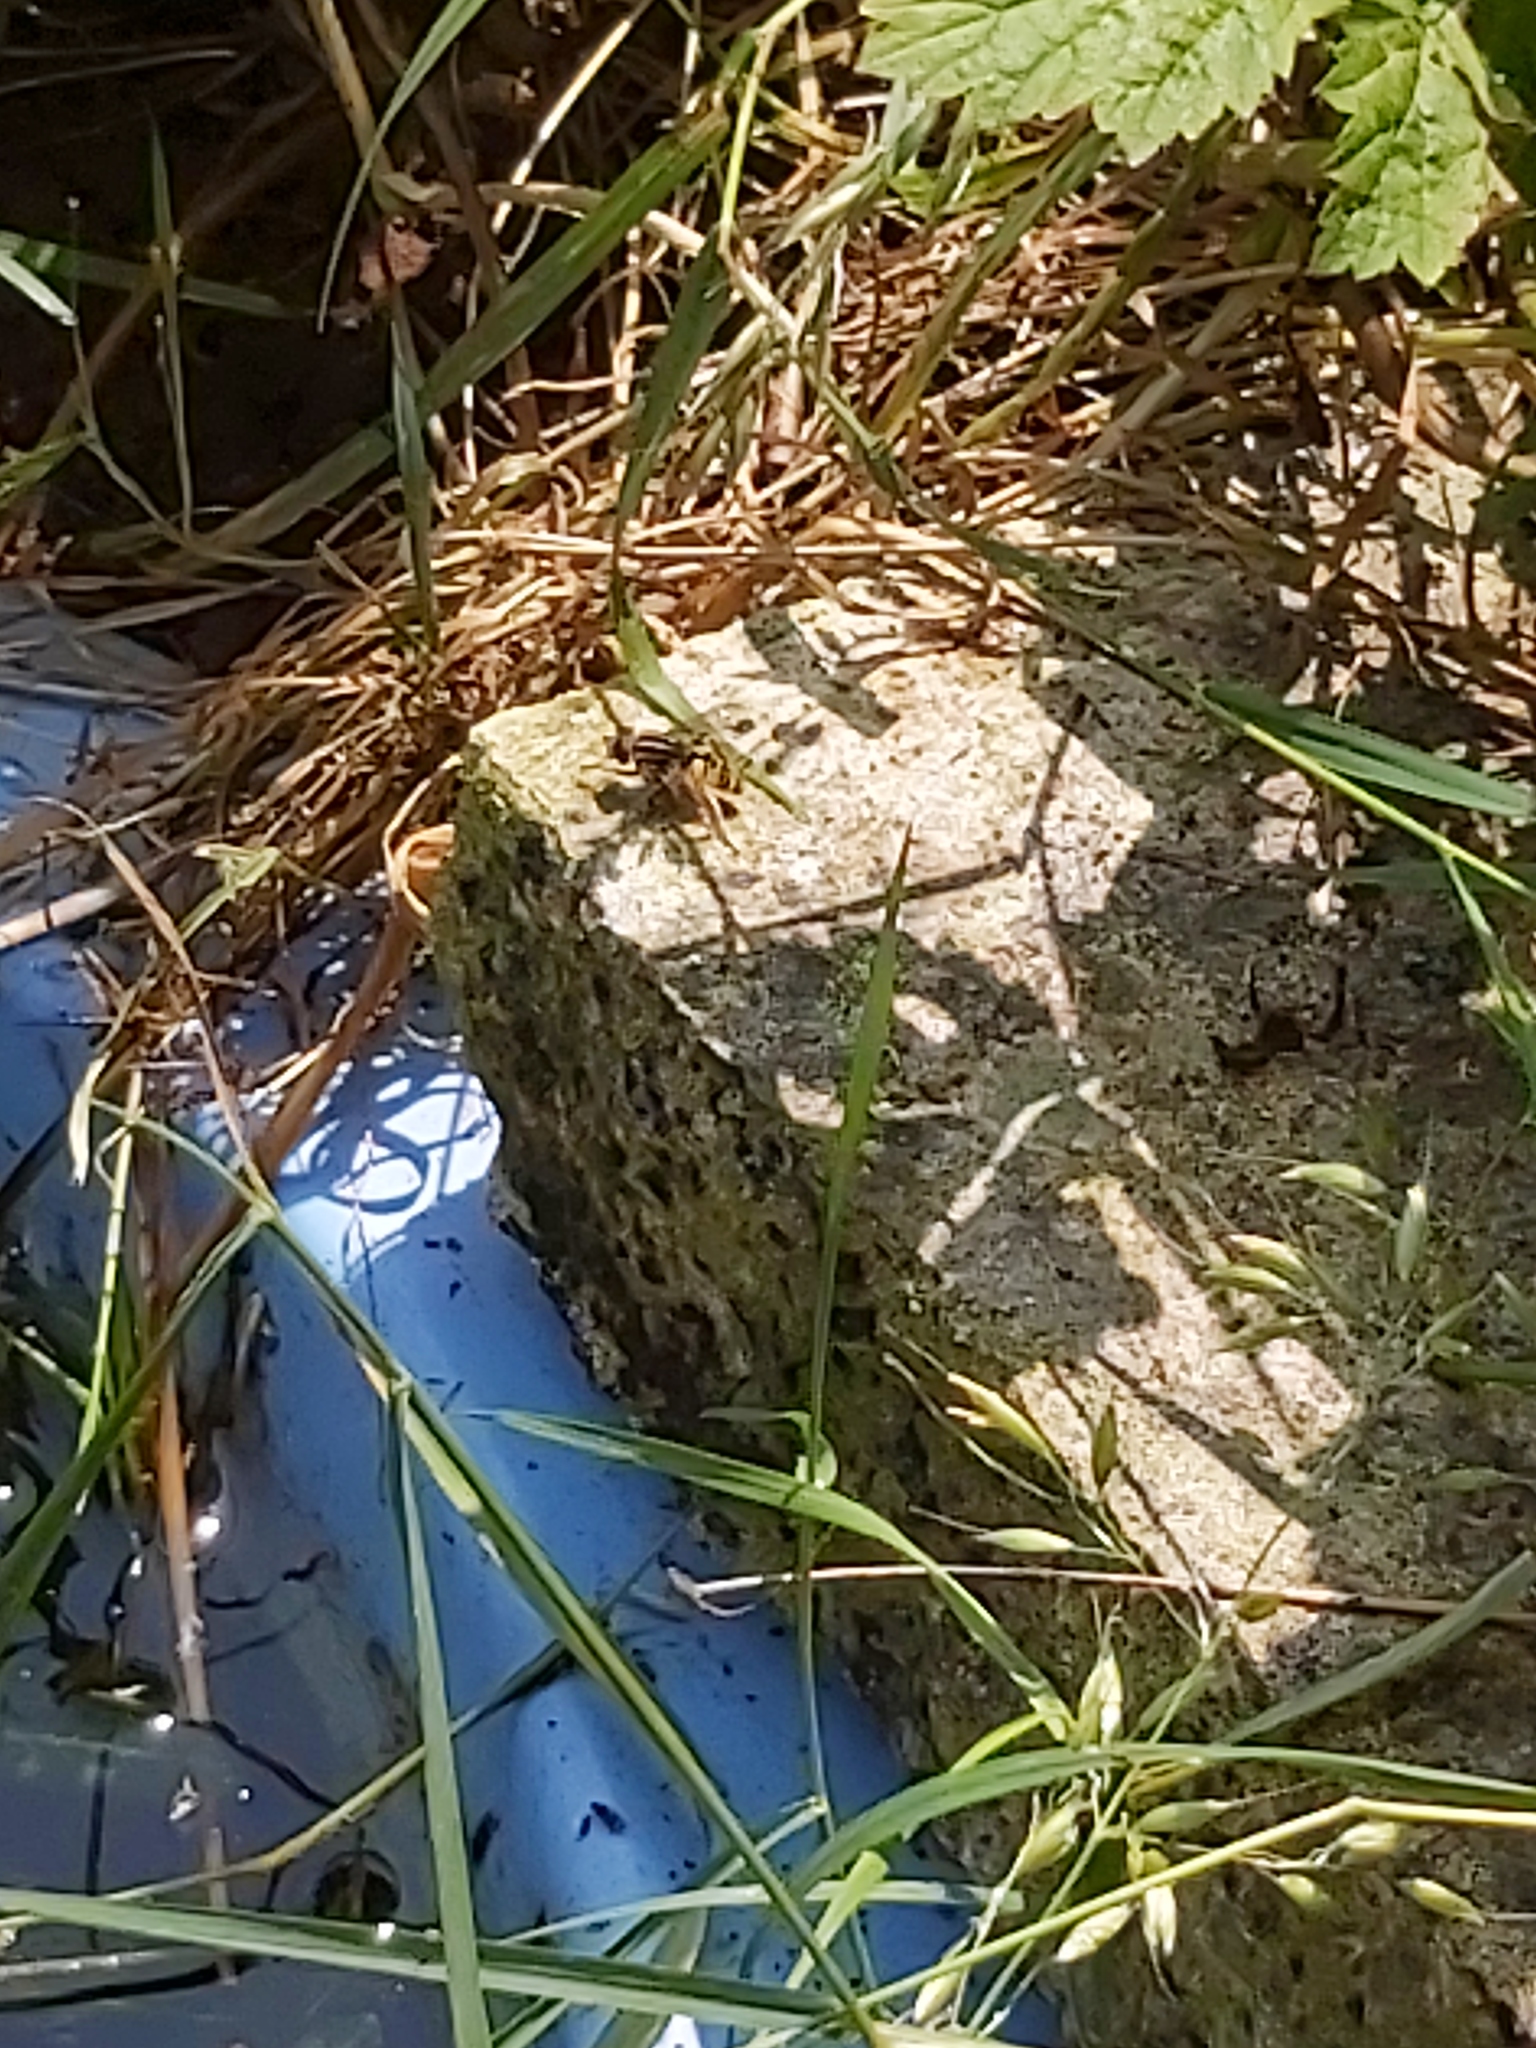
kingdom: Animalia
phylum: Arthropoda
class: Insecta
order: Diptera
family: Syrphidae
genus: Helophilus
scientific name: Helophilus pendulus
